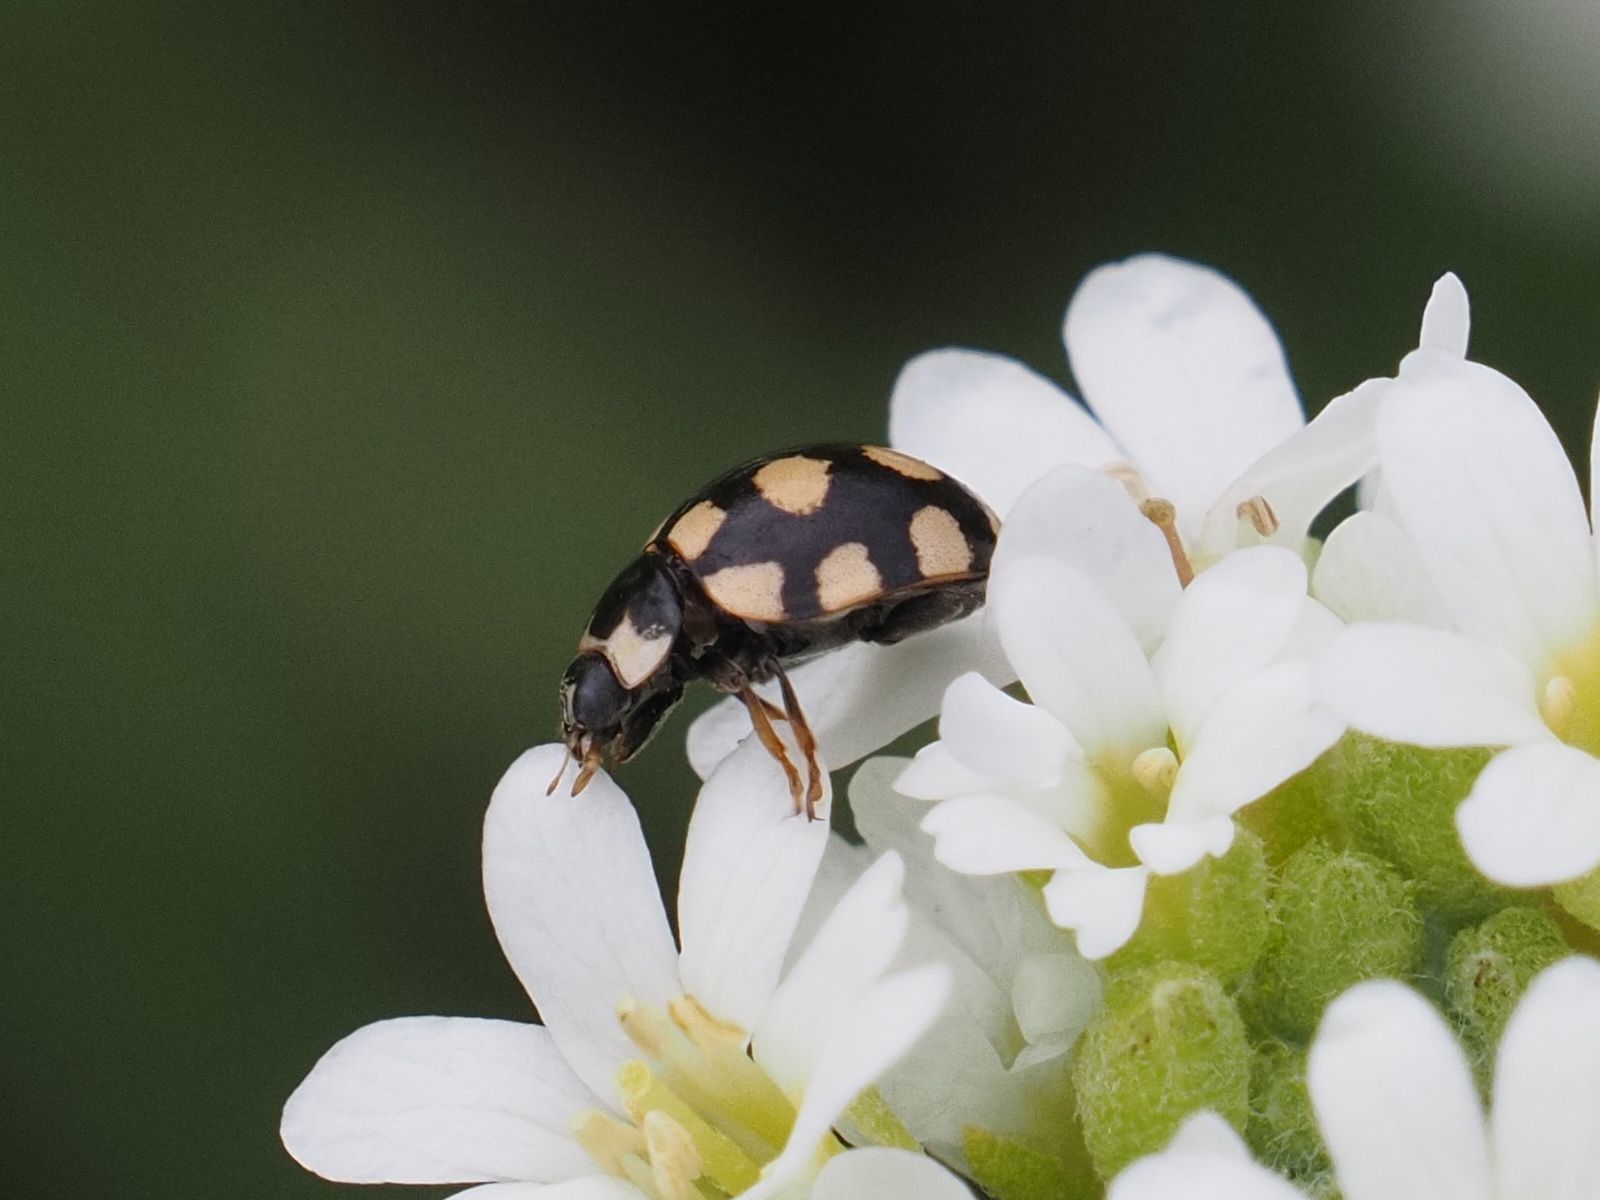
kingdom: Animalia
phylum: Arthropoda
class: Insecta
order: Coleoptera
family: Coccinellidae
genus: Coccinula
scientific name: Coccinula quatuordecimpustulata
